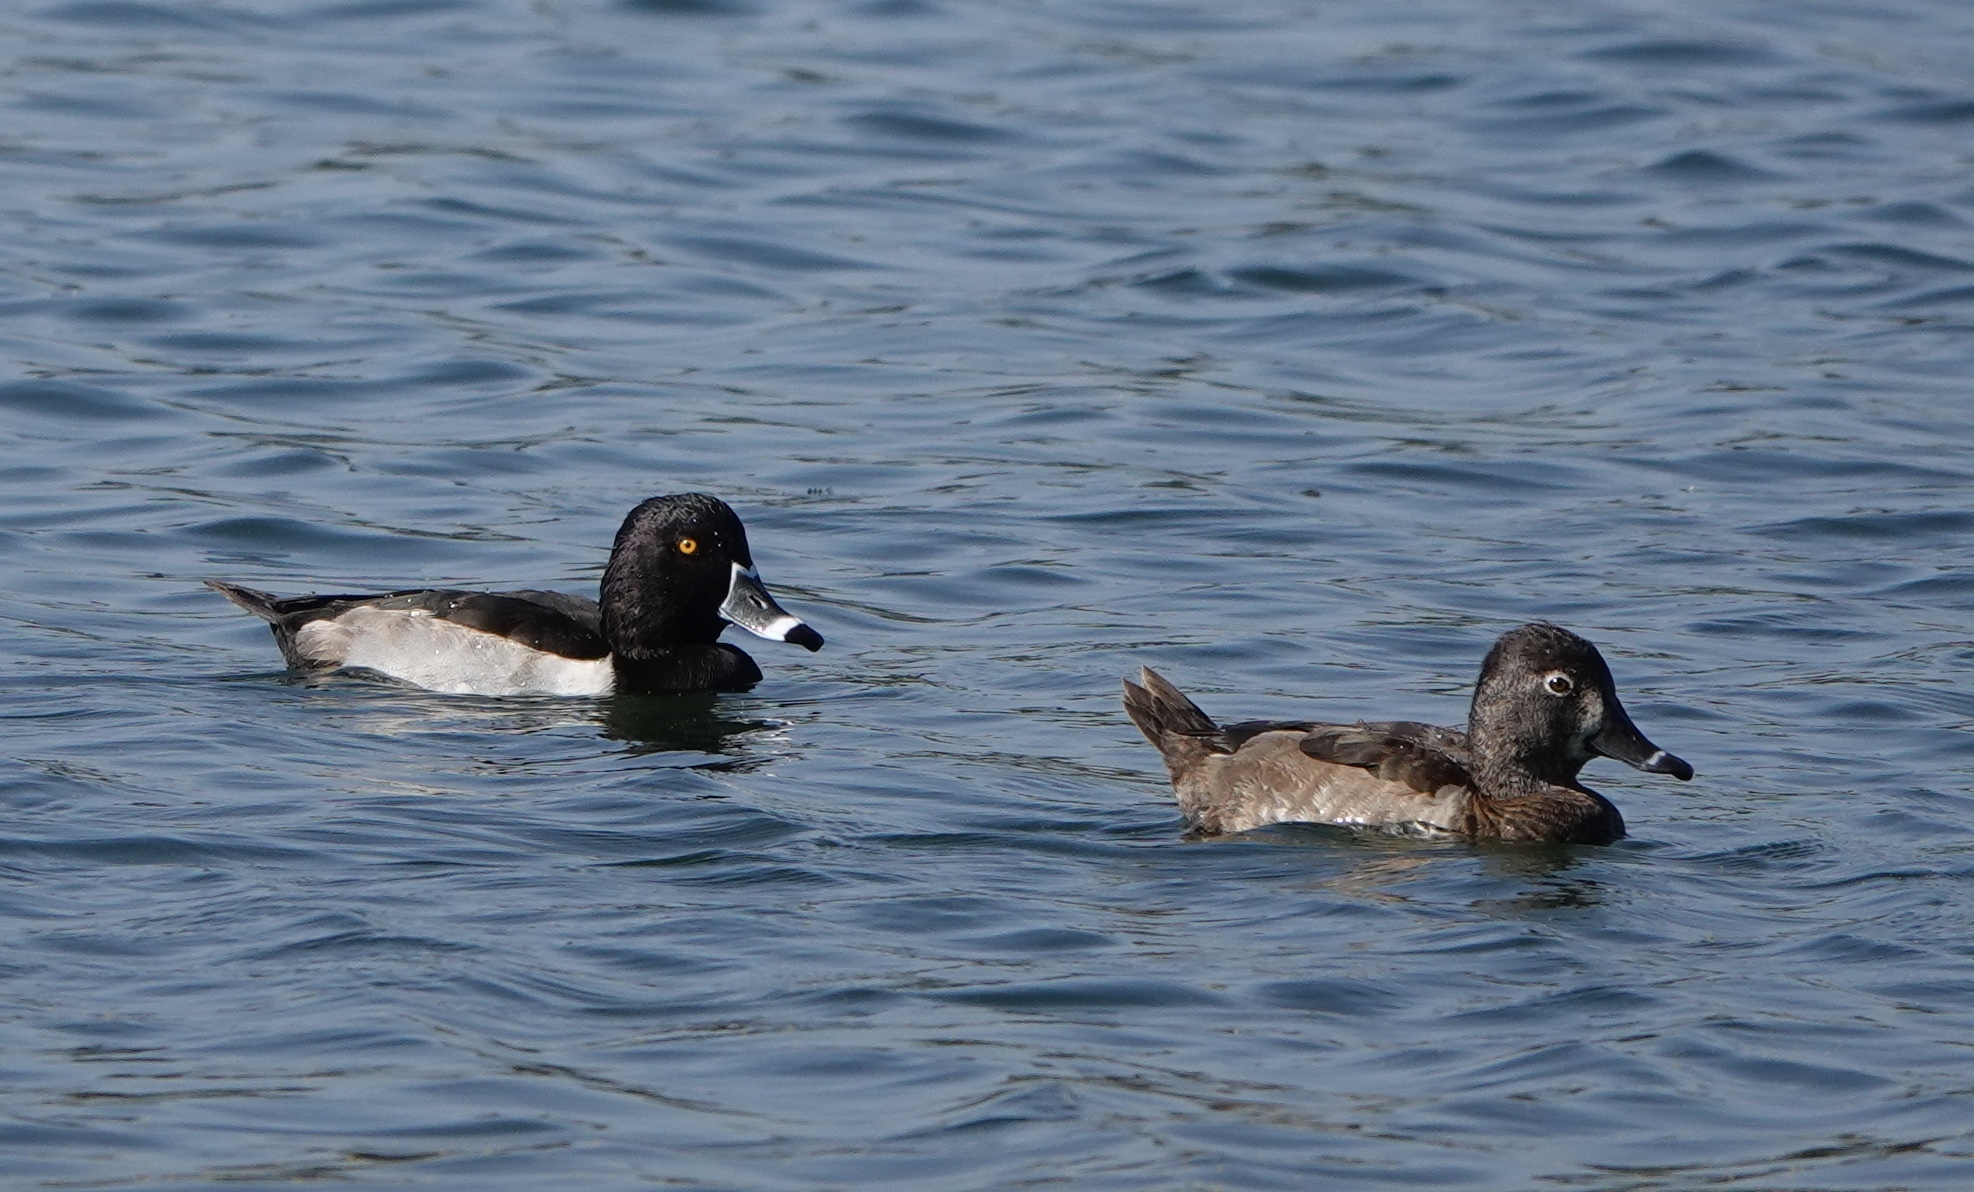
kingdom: Animalia
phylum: Chordata
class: Aves
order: Anseriformes
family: Anatidae
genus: Aythya
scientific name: Aythya collaris
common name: Ring-necked duck
